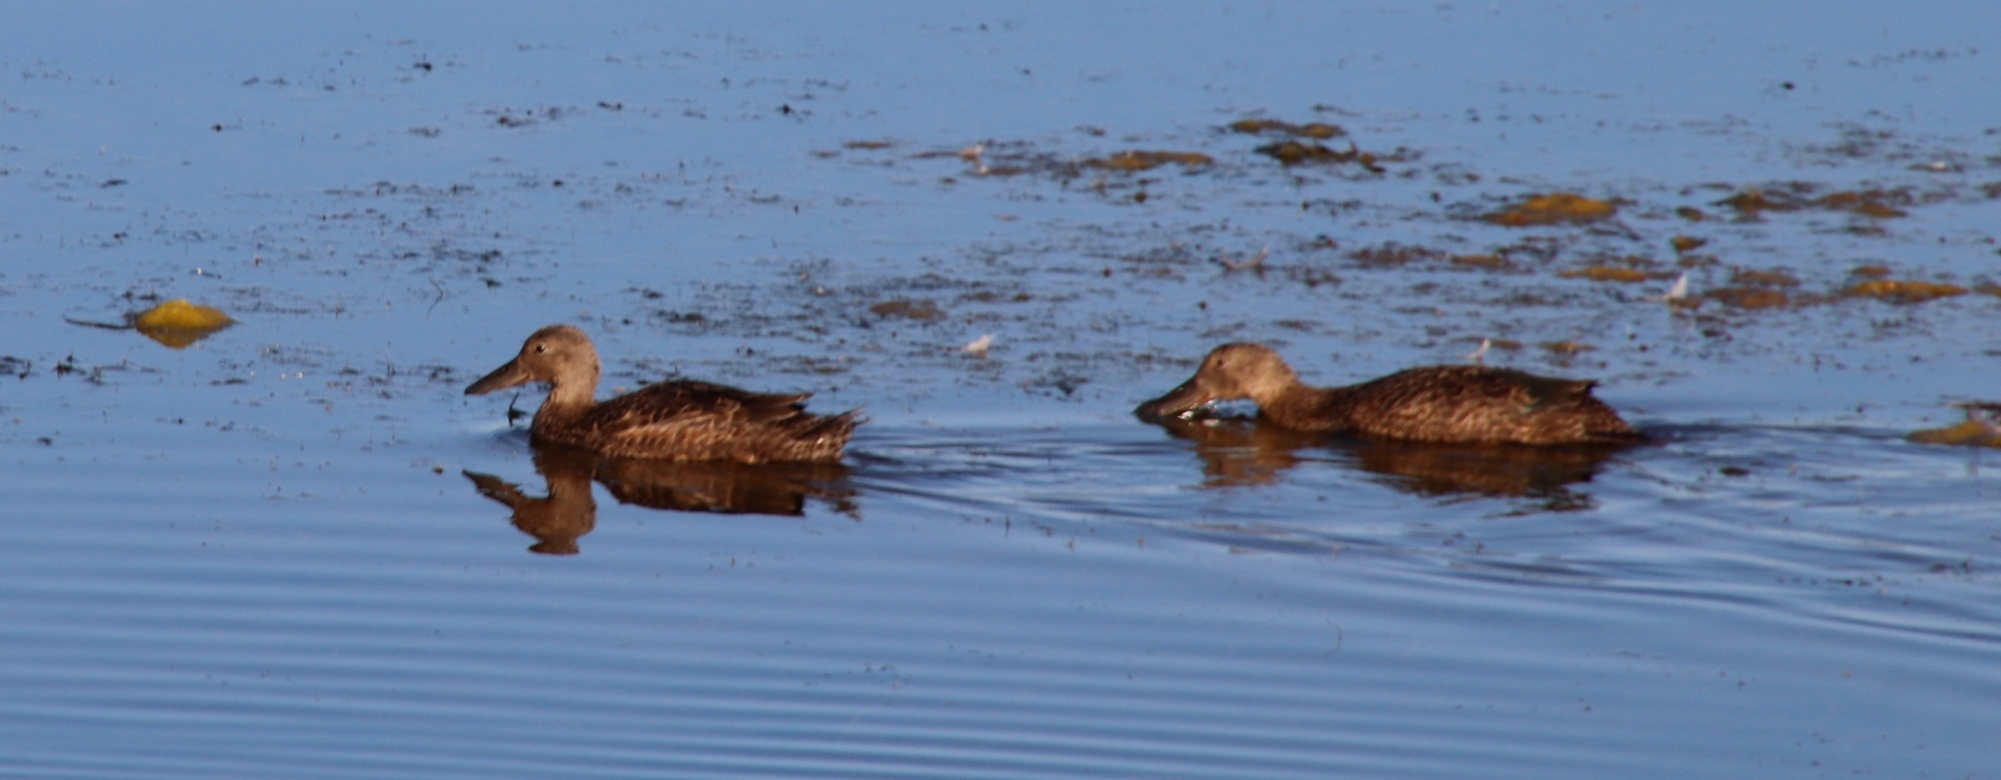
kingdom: Animalia
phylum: Chordata
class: Aves
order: Anseriformes
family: Anatidae
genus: Spatula
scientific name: Spatula smithii
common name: Cape shoveler
